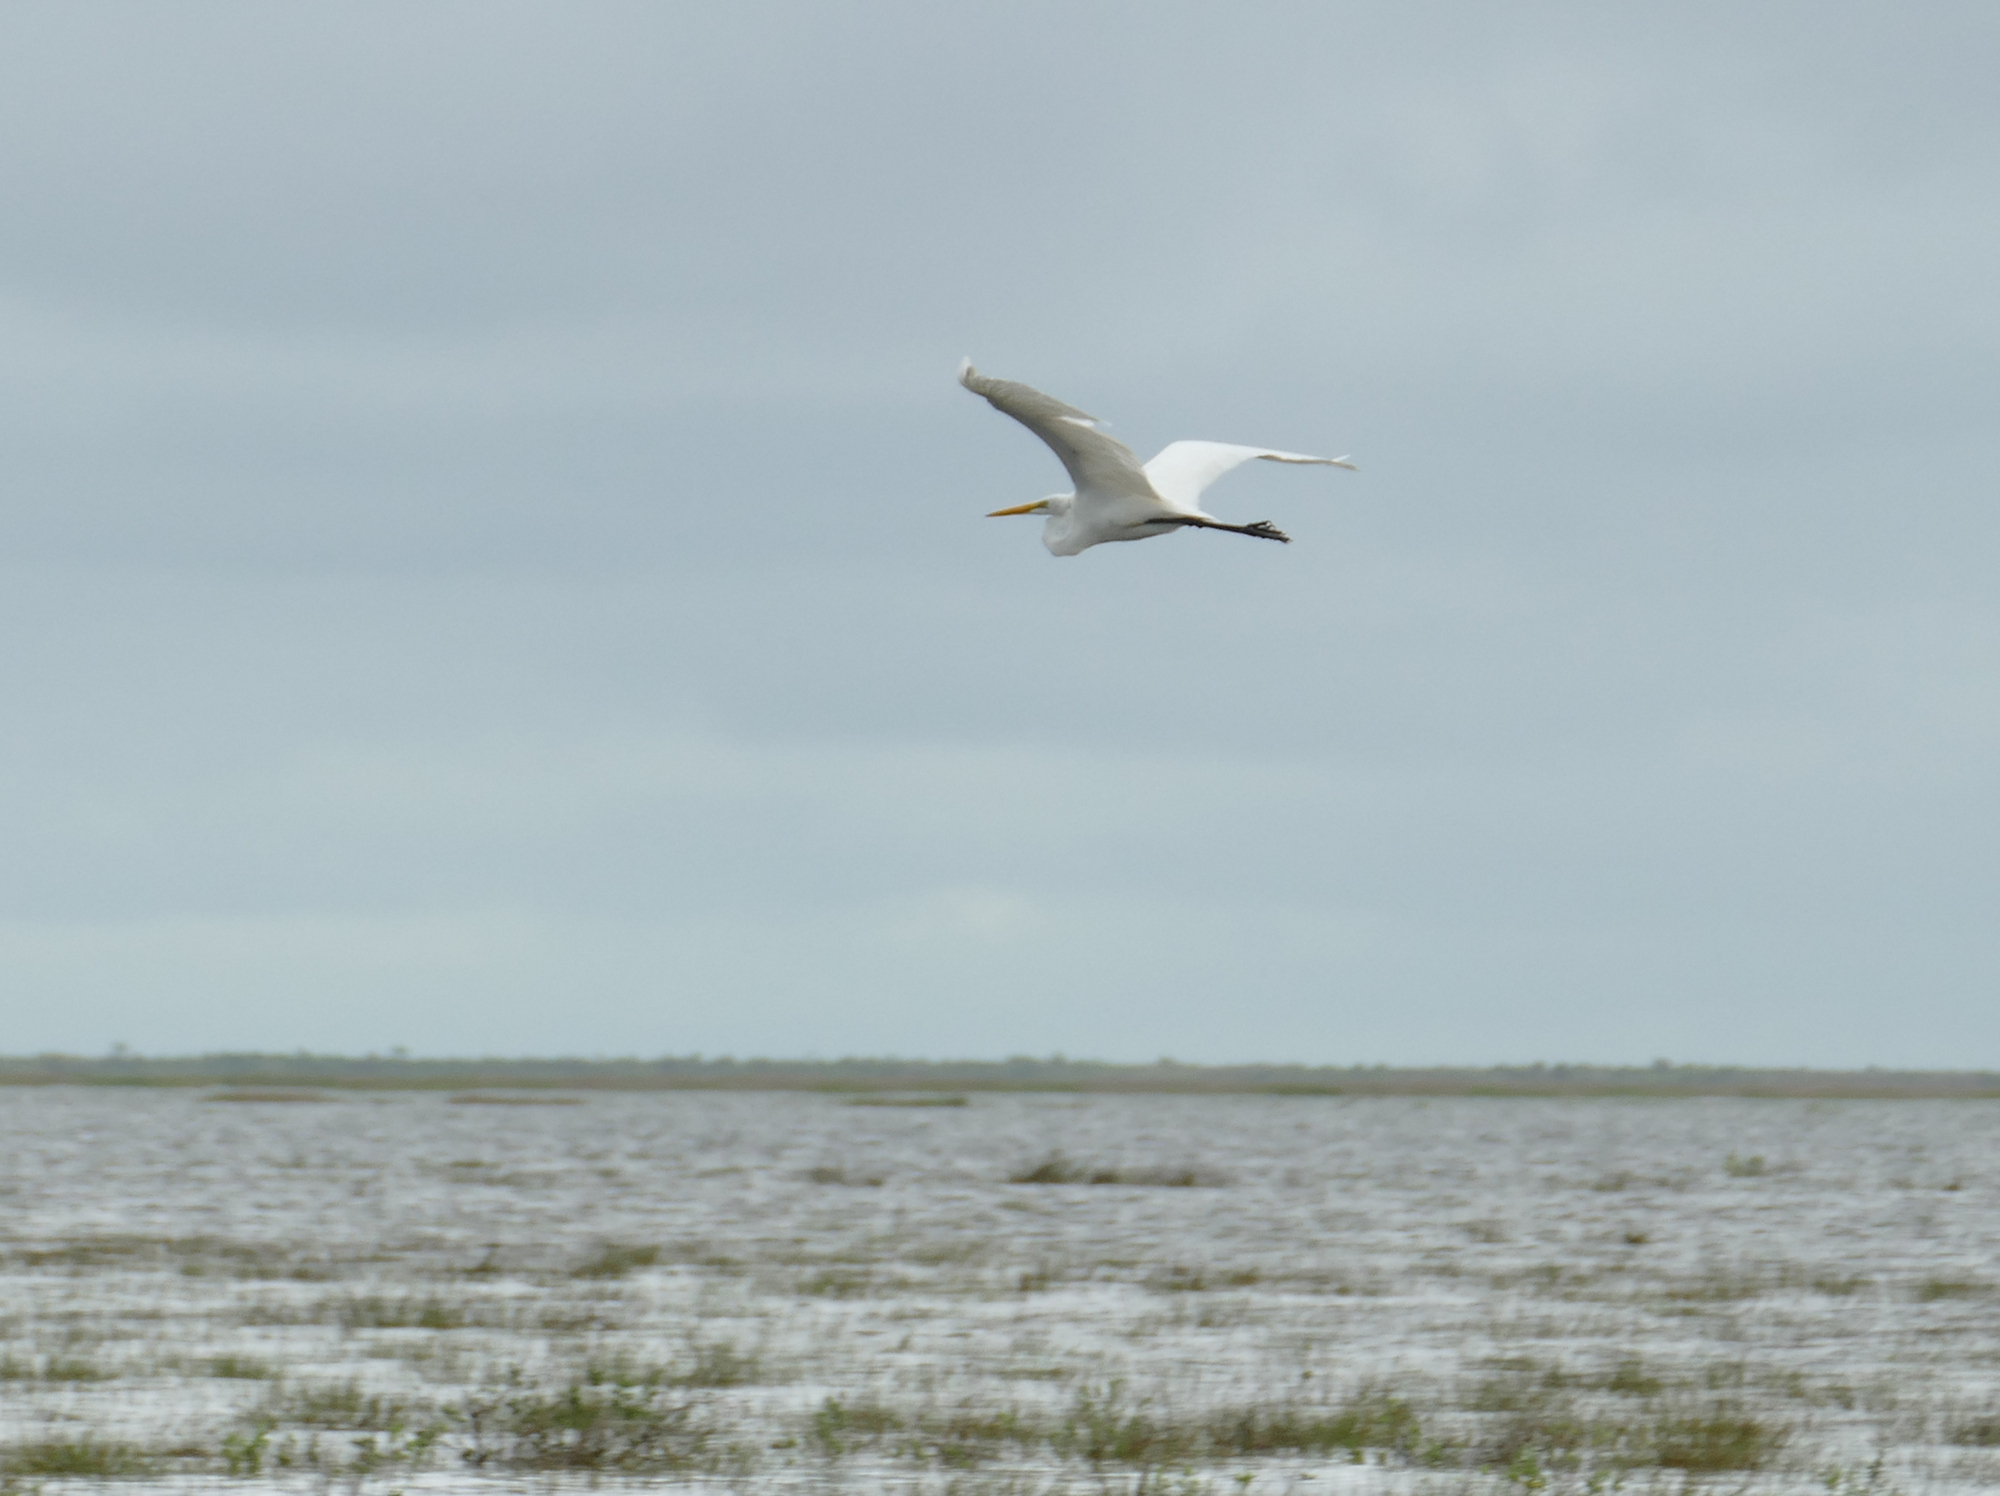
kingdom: Animalia
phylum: Chordata
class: Aves
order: Pelecaniformes
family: Ardeidae
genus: Ardea
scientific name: Ardea alba
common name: Great egret
